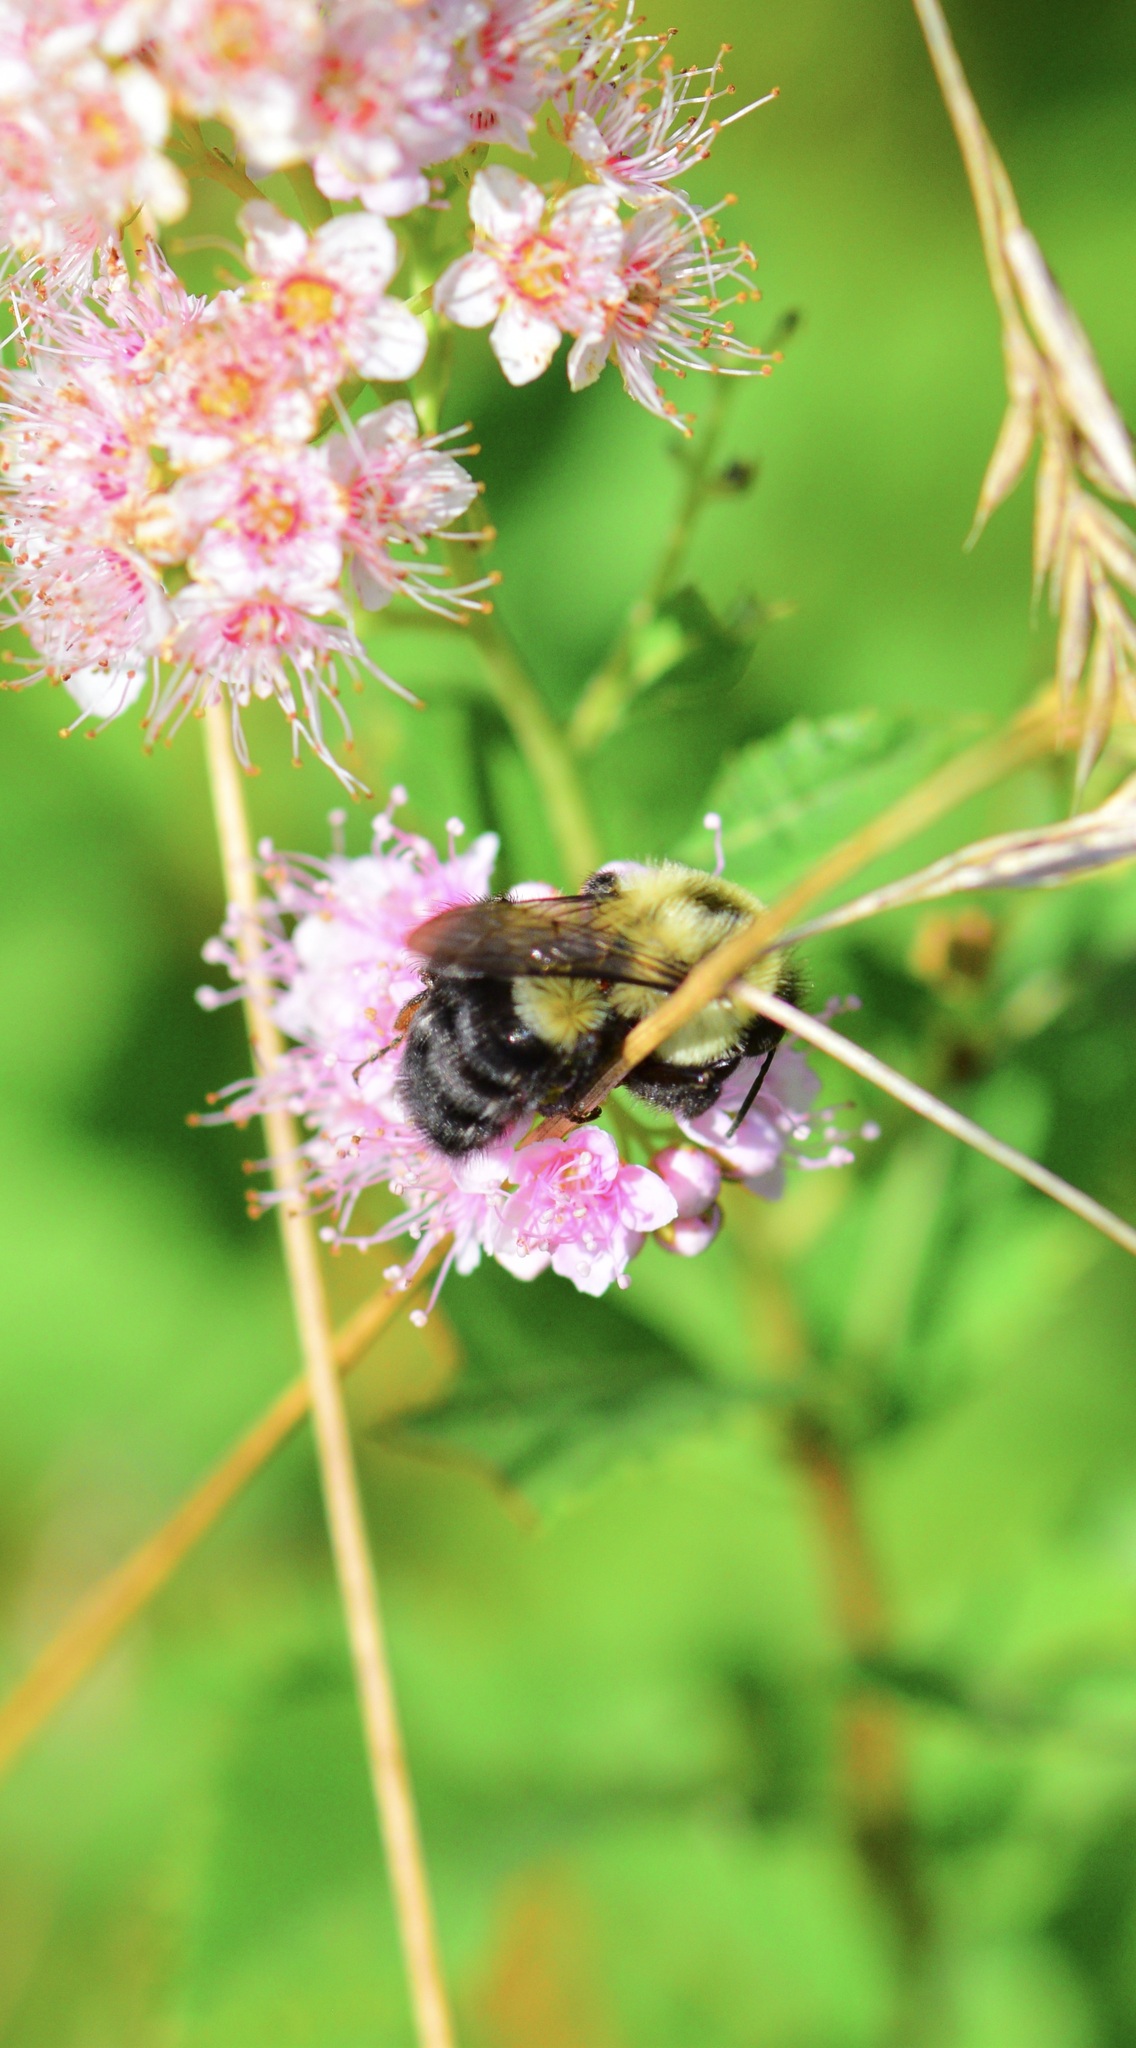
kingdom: Animalia
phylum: Arthropoda
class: Insecta
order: Hymenoptera
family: Apidae
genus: Bombus
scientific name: Bombus impatiens
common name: Common eastern bumble bee
